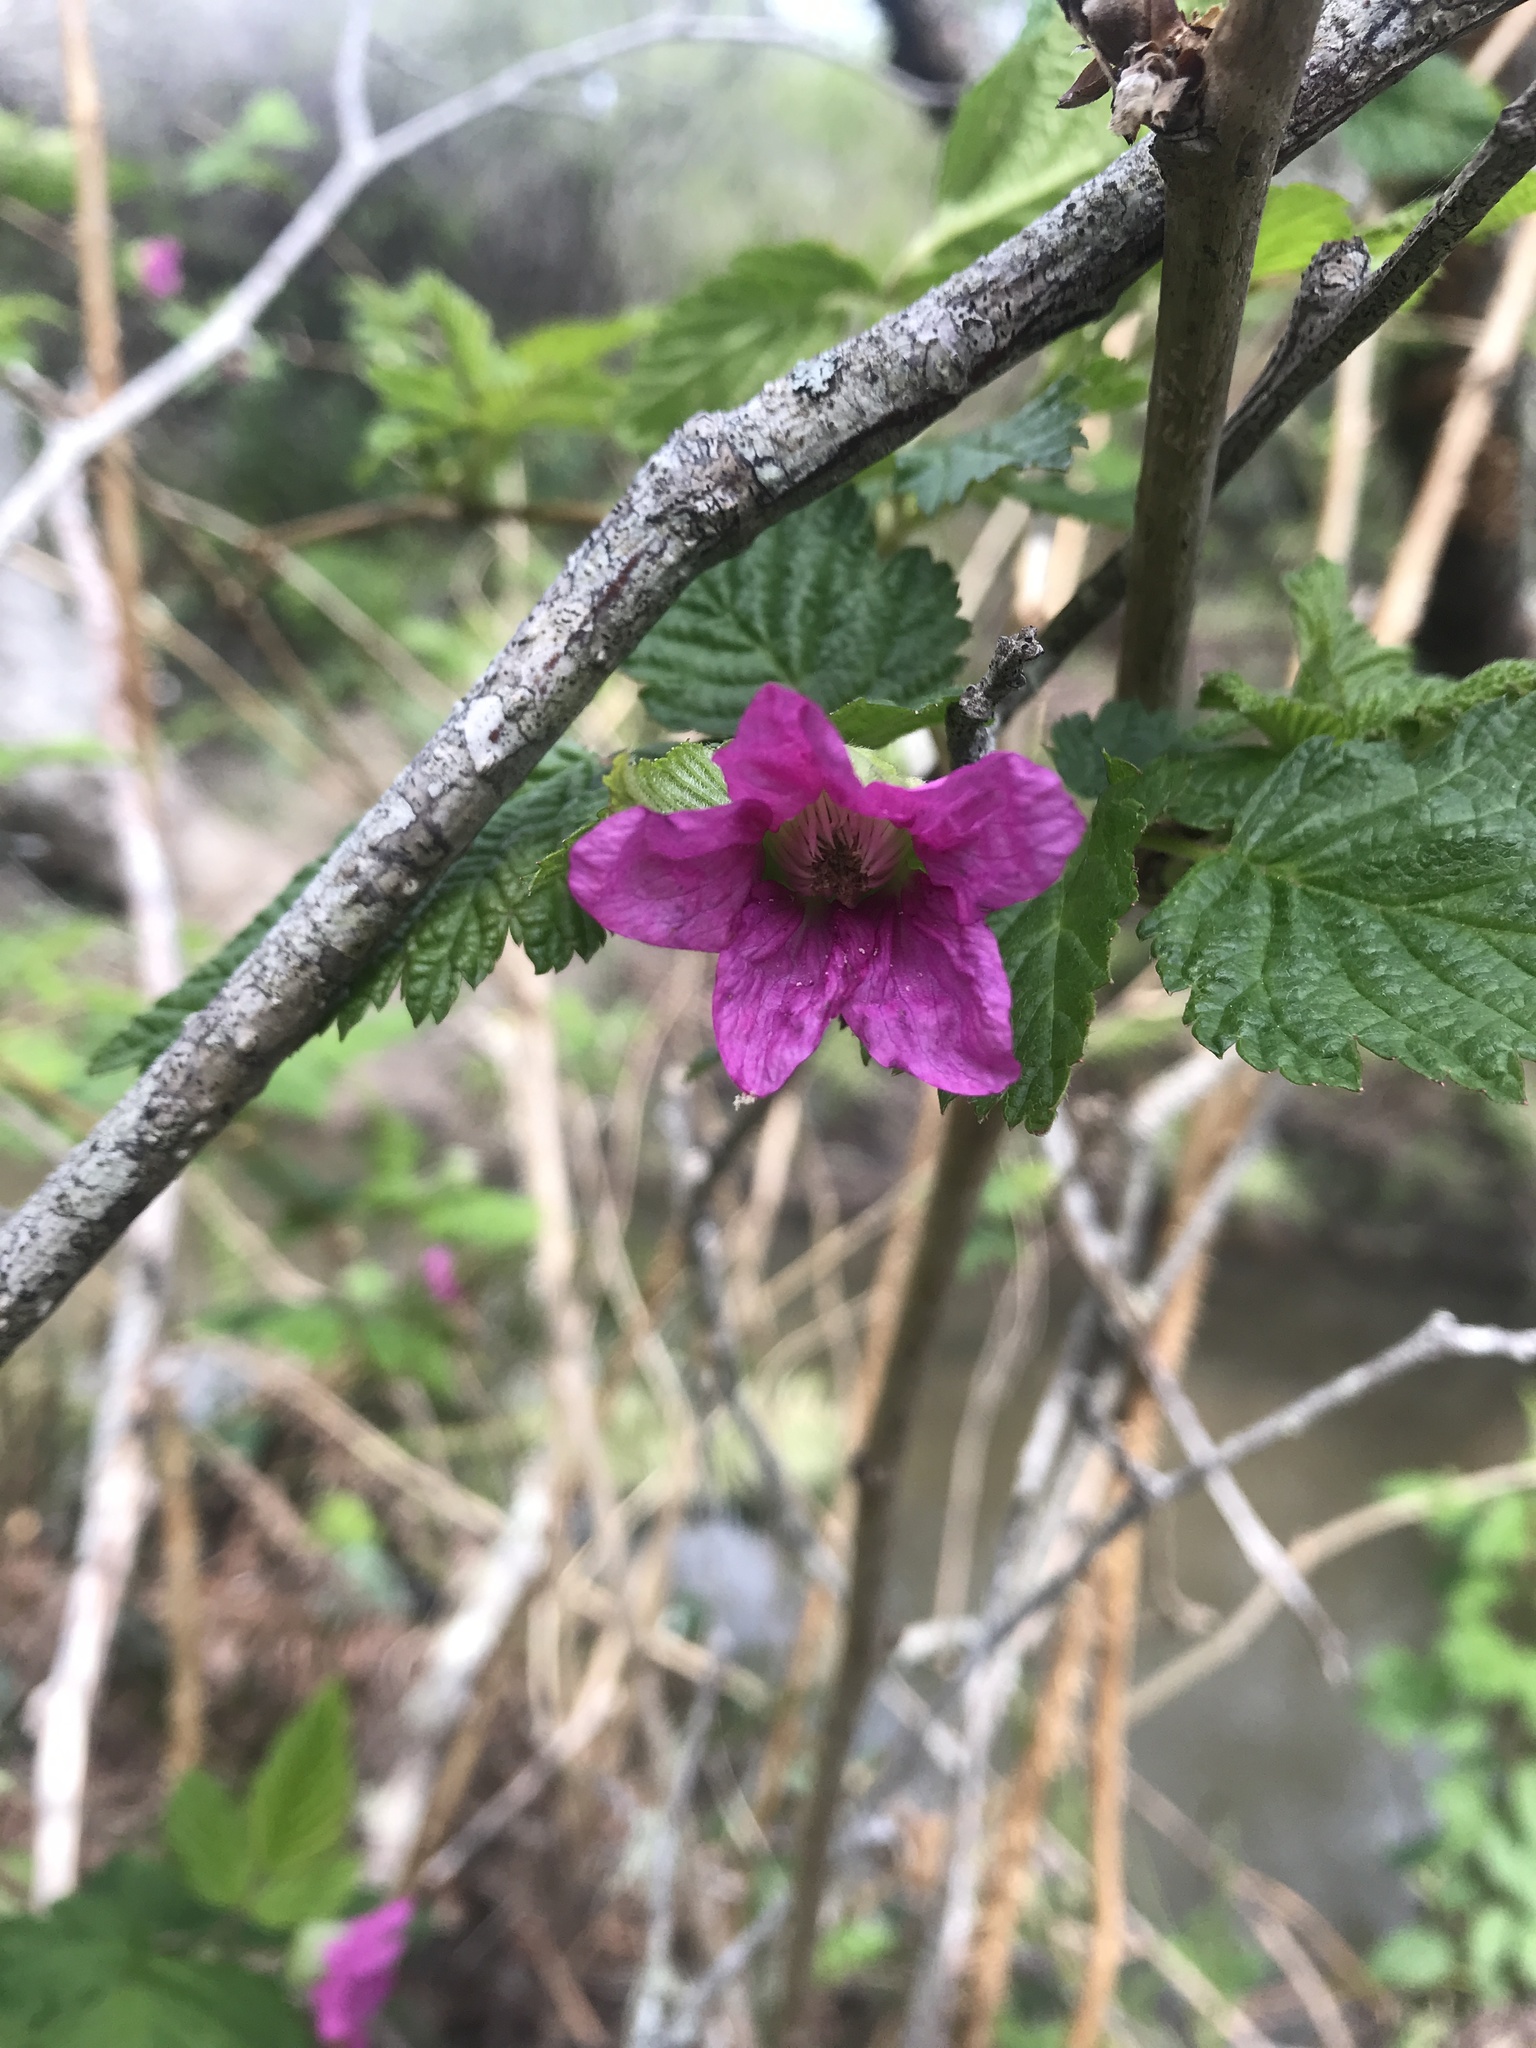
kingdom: Plantae
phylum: Tracheophyta
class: Magnoliopsida
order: Rosales
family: Rosaceae
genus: Rubus
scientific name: Rubus spectabilis
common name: Salmonberry
